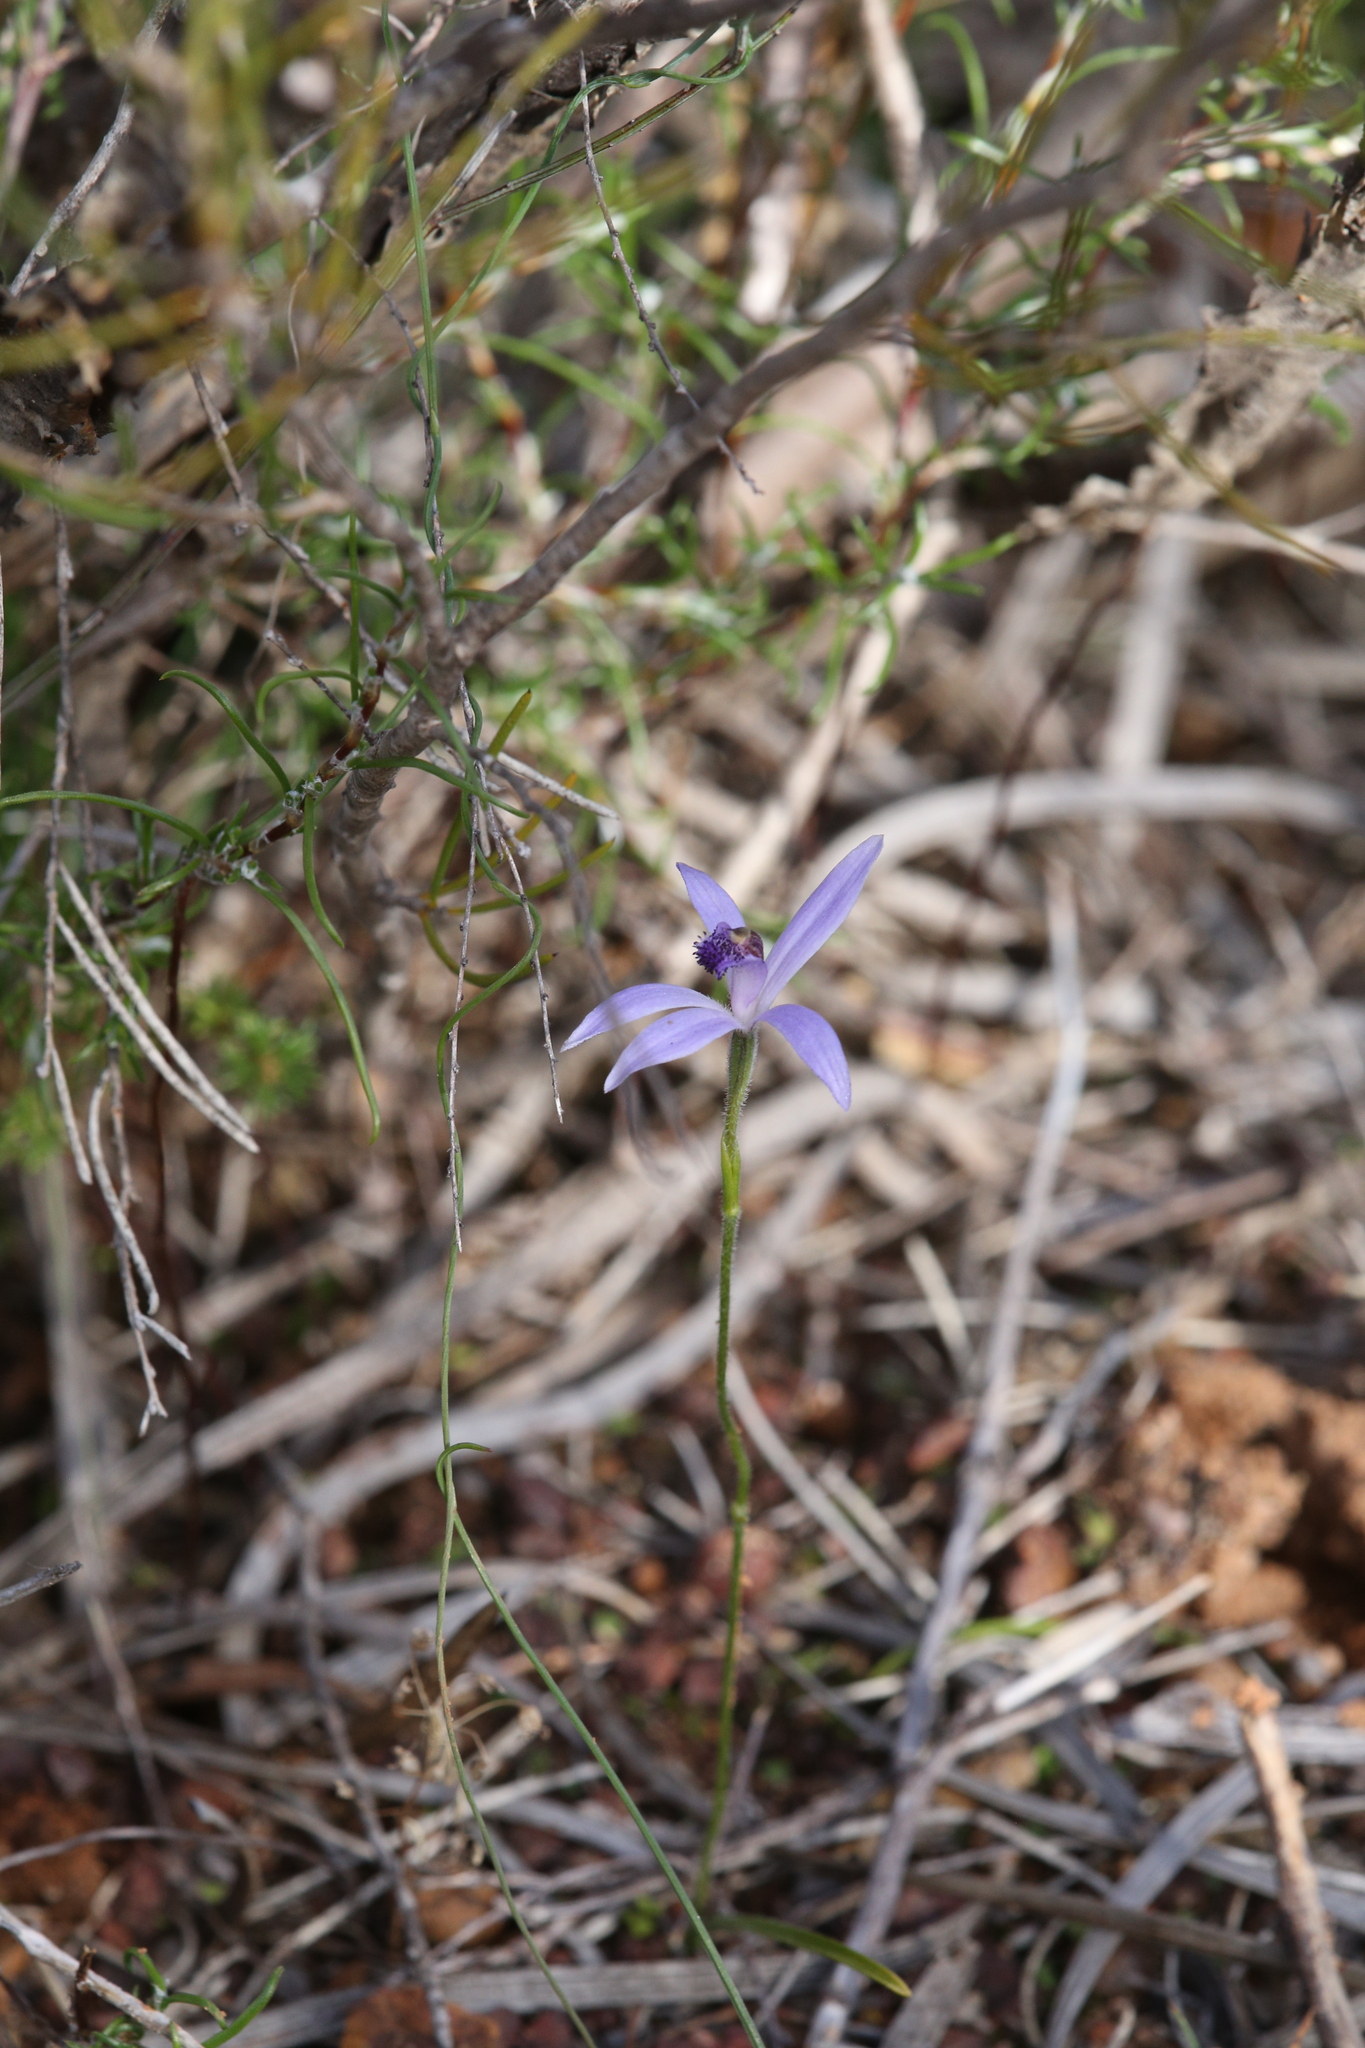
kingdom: Plantae
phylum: Tracheophyta
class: Liliopsida
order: Asparagales
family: Orchidaceae
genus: Pheladenia
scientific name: Pheladenia deformis
